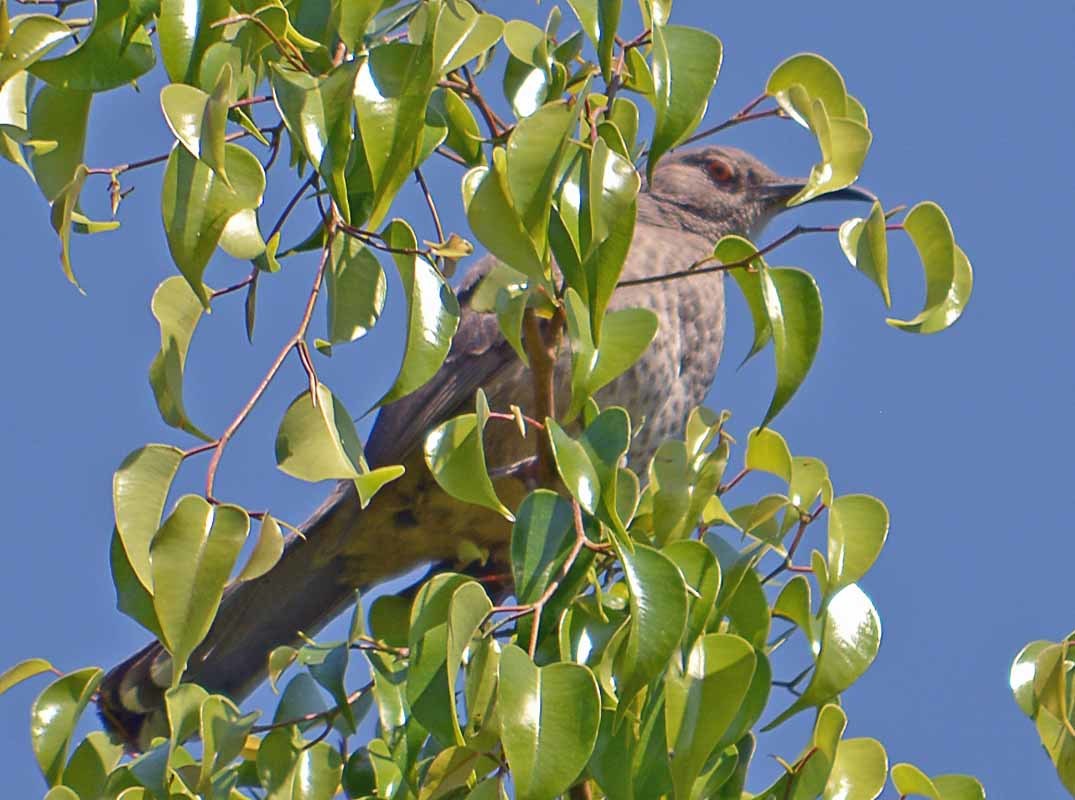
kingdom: Animalia
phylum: Chordata
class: Aves
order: Passeriformes
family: Mimidae
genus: Toxostoma
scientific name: Toxostoma curvirostre
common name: Curve-billed thrasher
